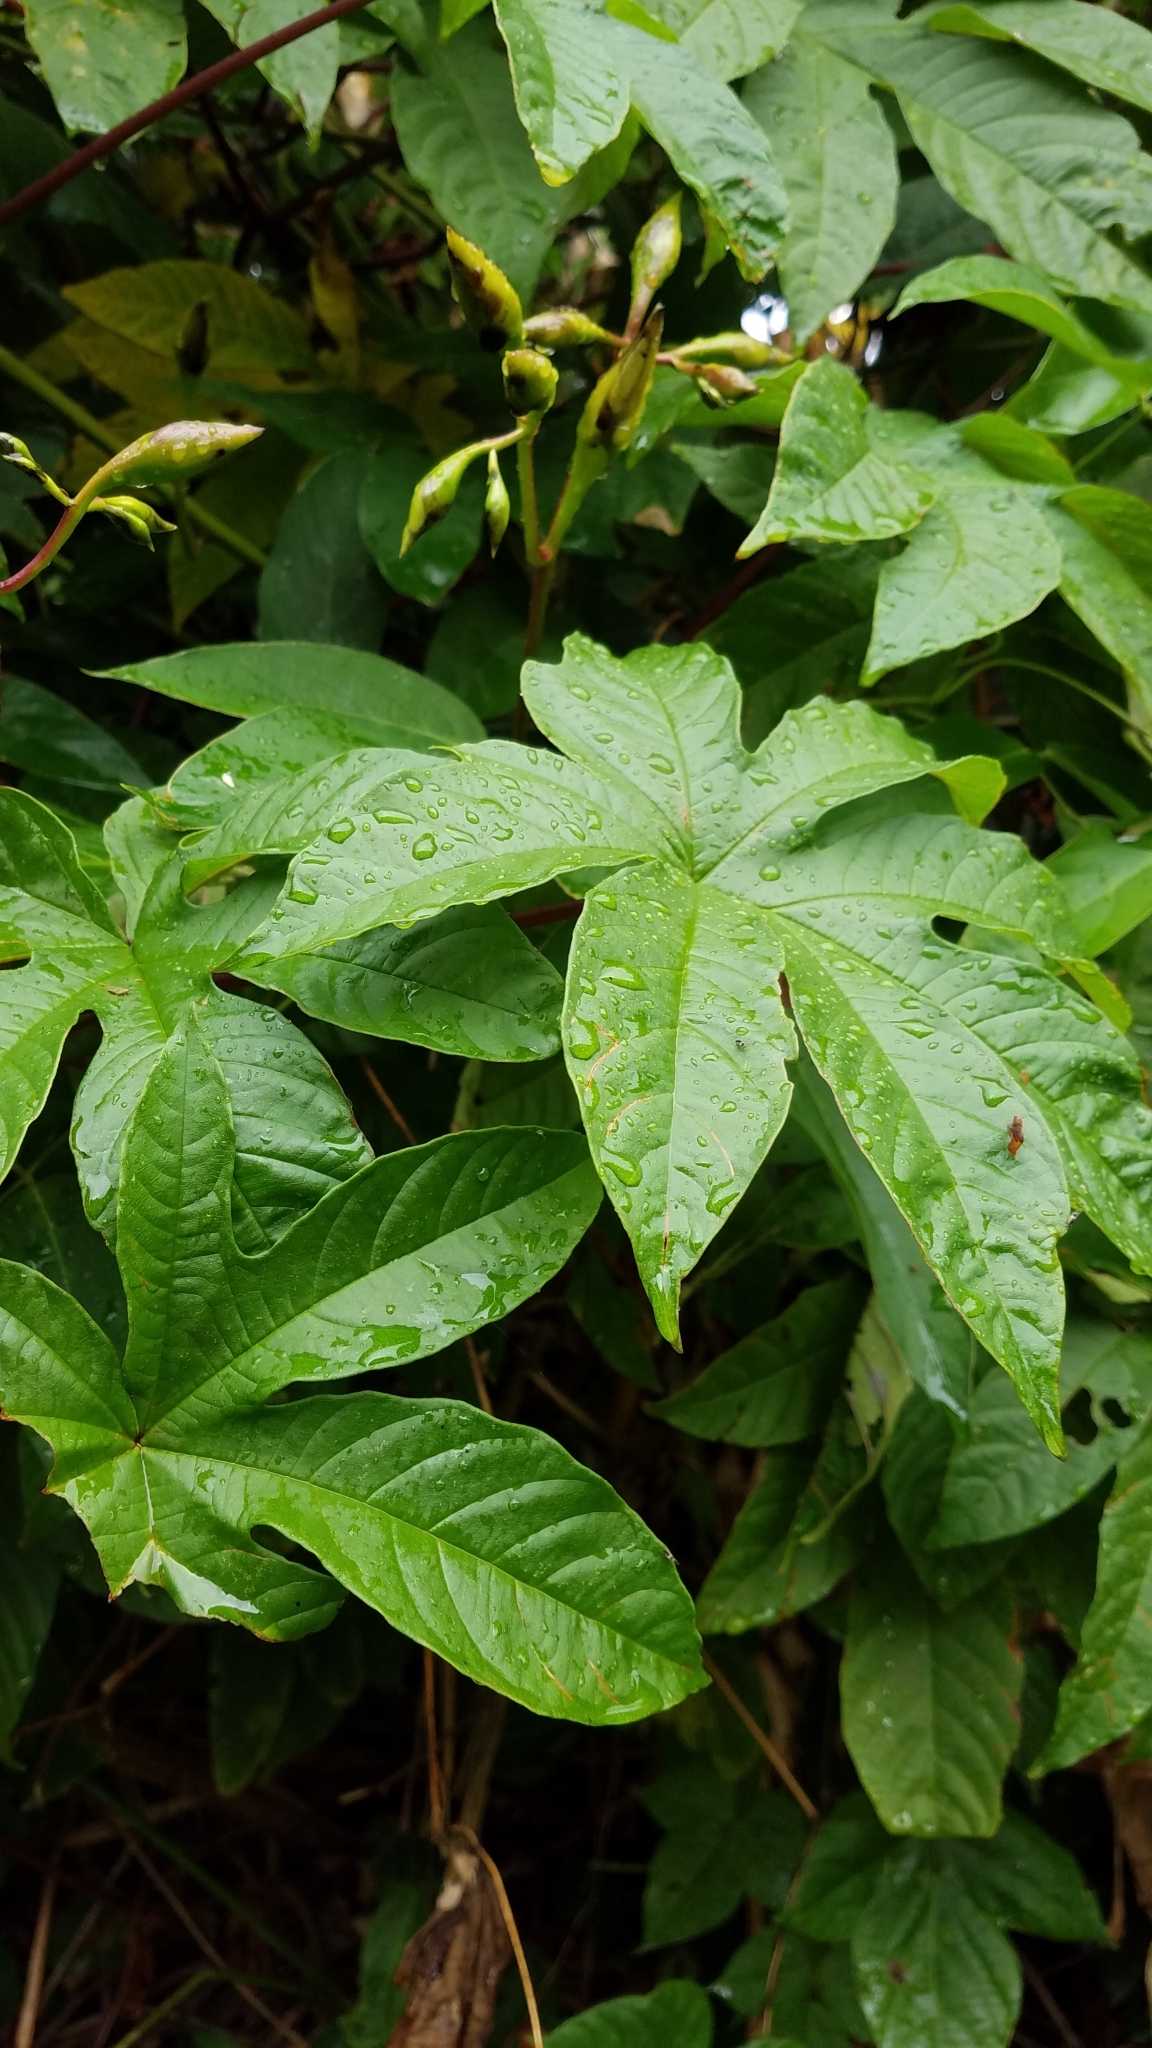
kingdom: Plantae
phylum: Tracheophyta
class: Magnoliopsida
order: Solanales
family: Convolvulaceae
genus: Distimake
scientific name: Distimake tuberosus
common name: Spanish arborvine
